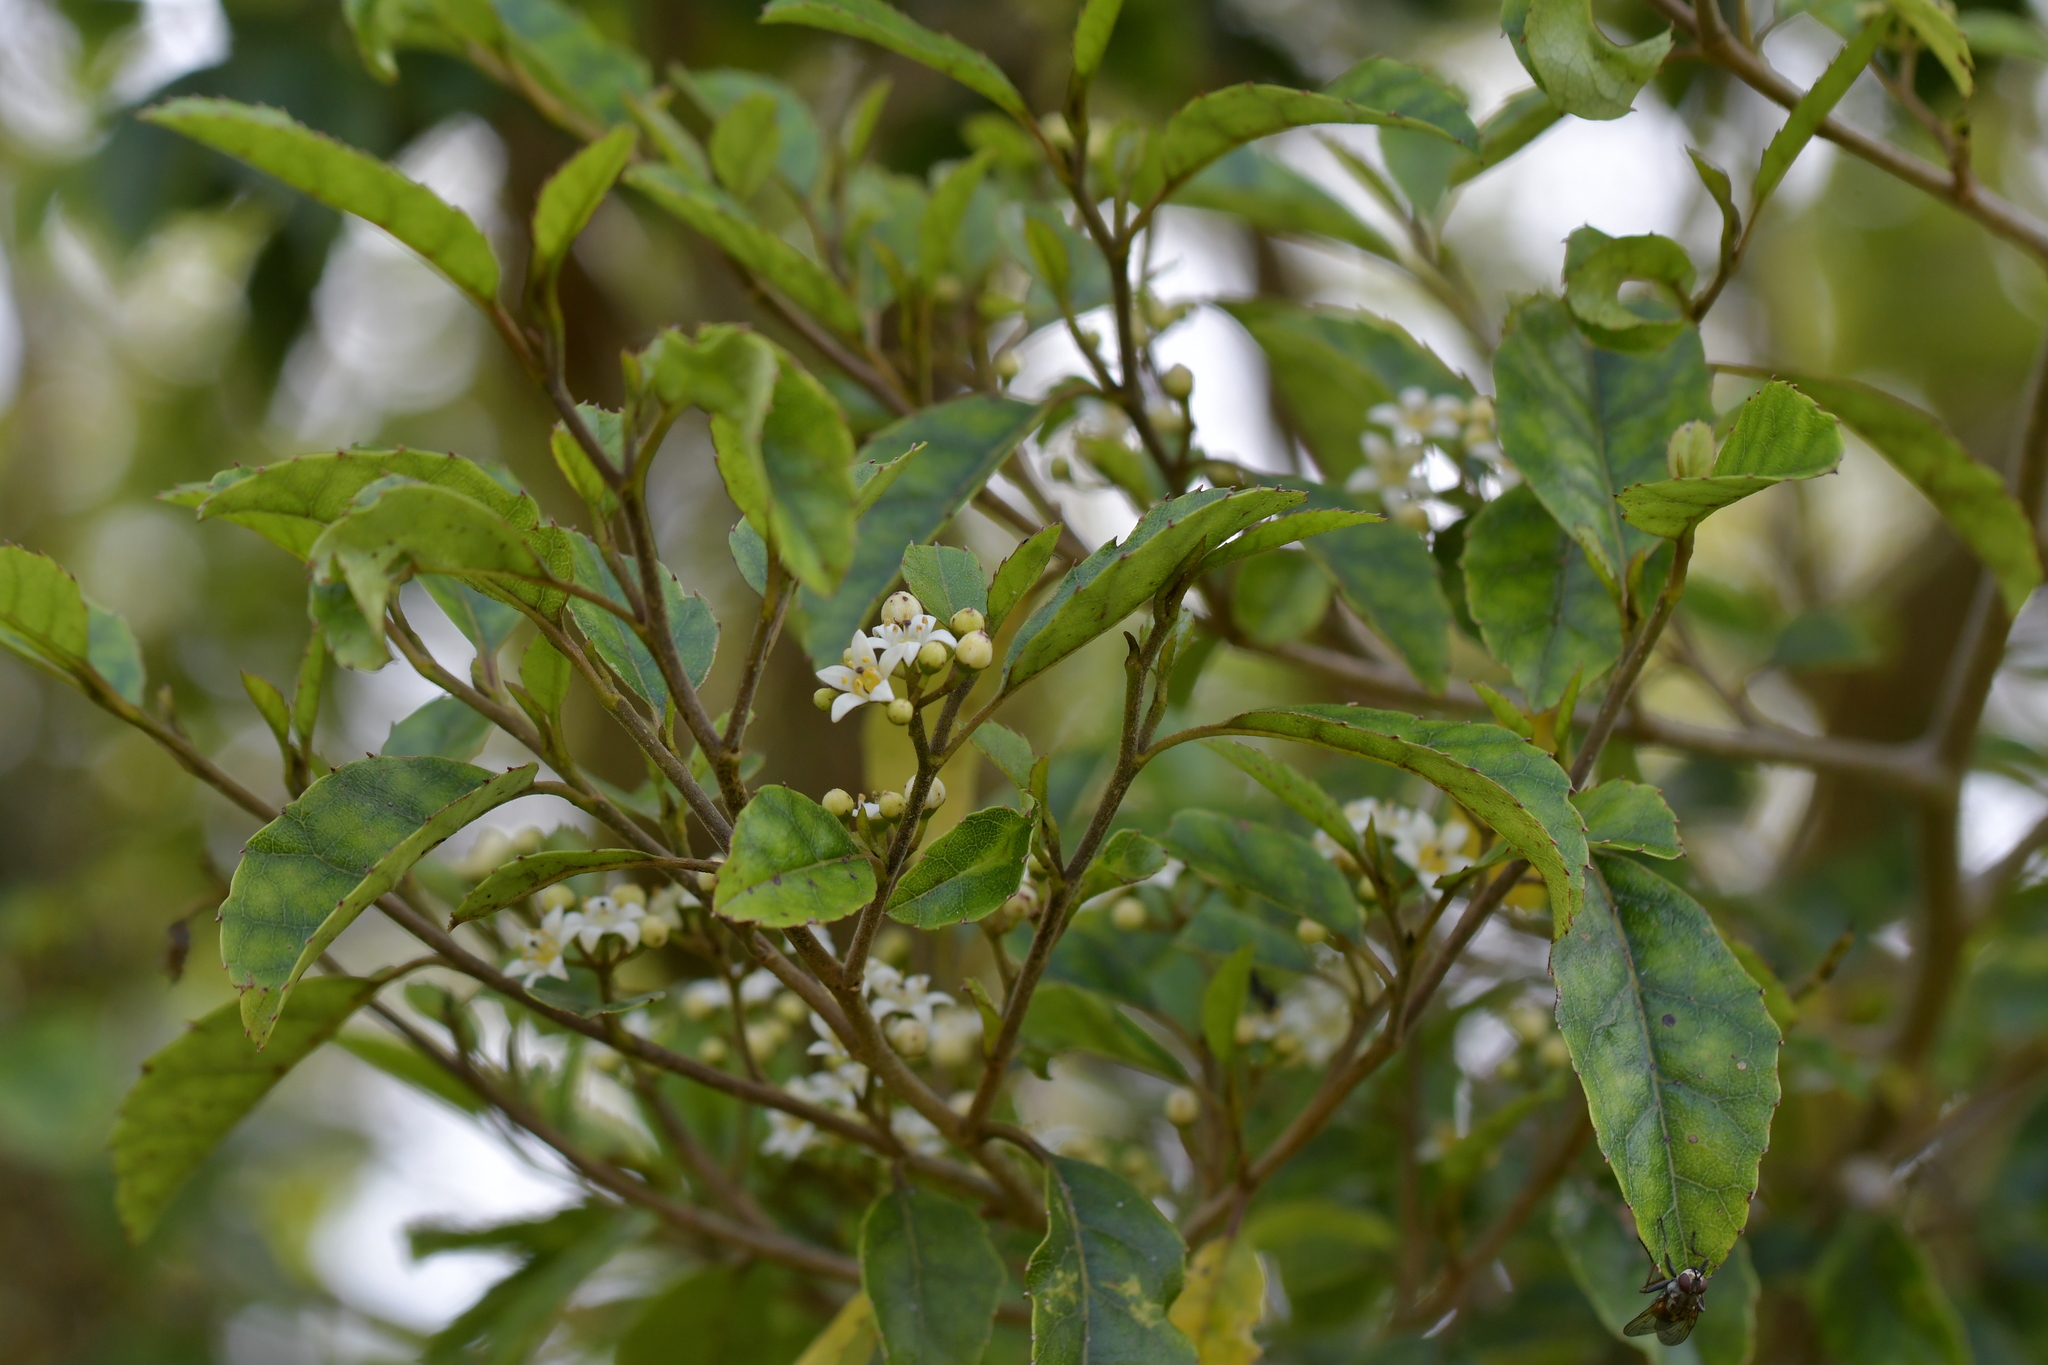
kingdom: Plantae
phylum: Tracheophyta
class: Magnoliopsida
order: Asterales
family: Rousseaceae
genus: Carpodetus
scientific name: Carpodetus serratus
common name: White mapau
